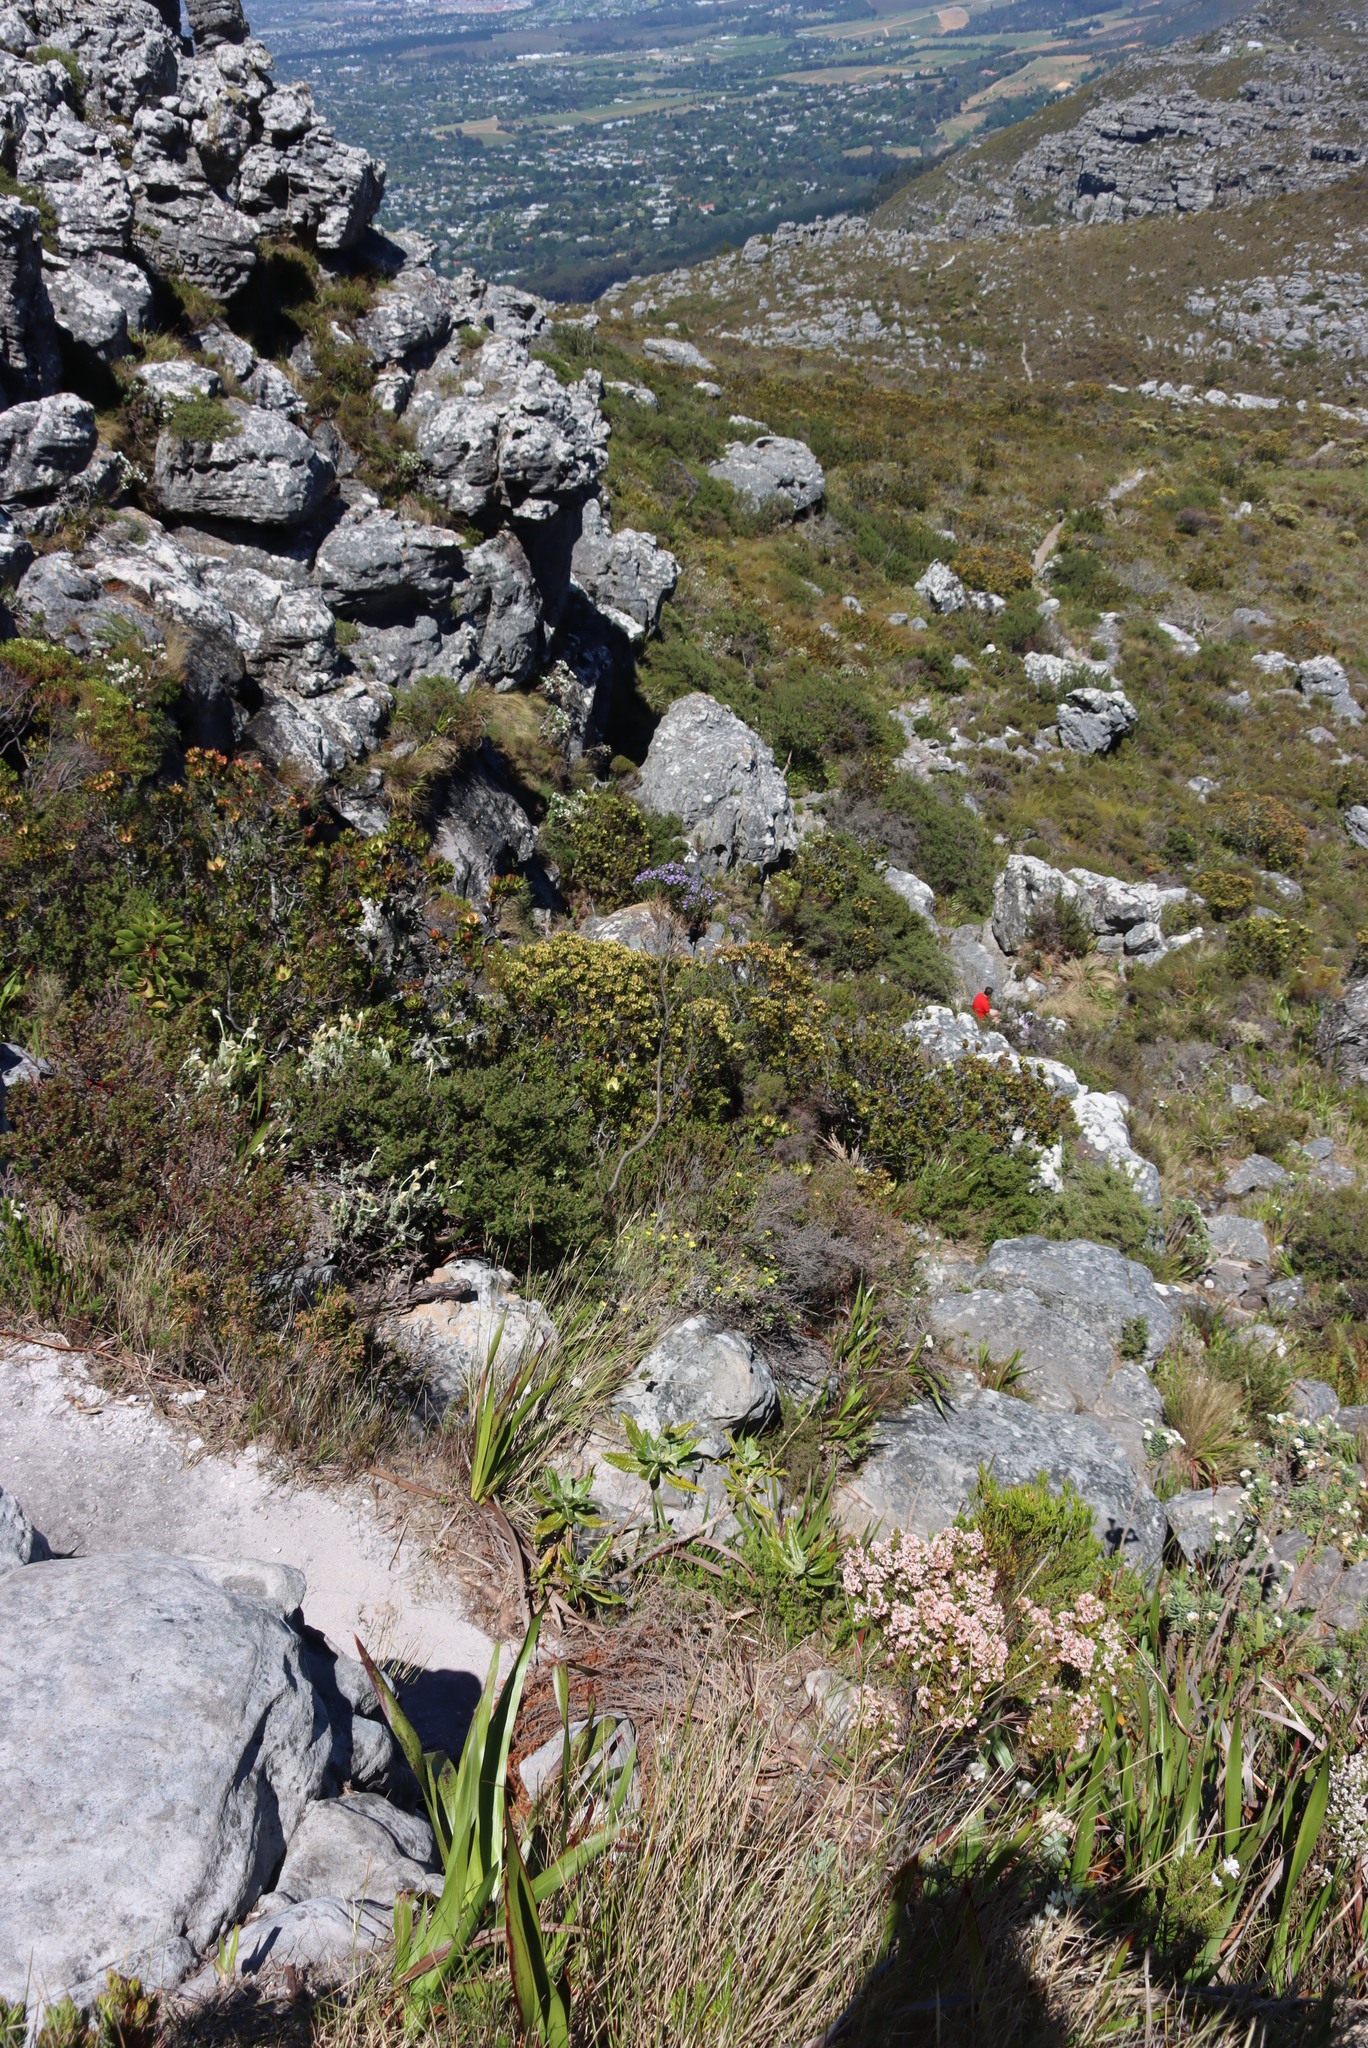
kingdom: Plantae
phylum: Tracheophyta
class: Magnoliopsida
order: Ericales
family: Ericaceae
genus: Erica
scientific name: Erica calycina
